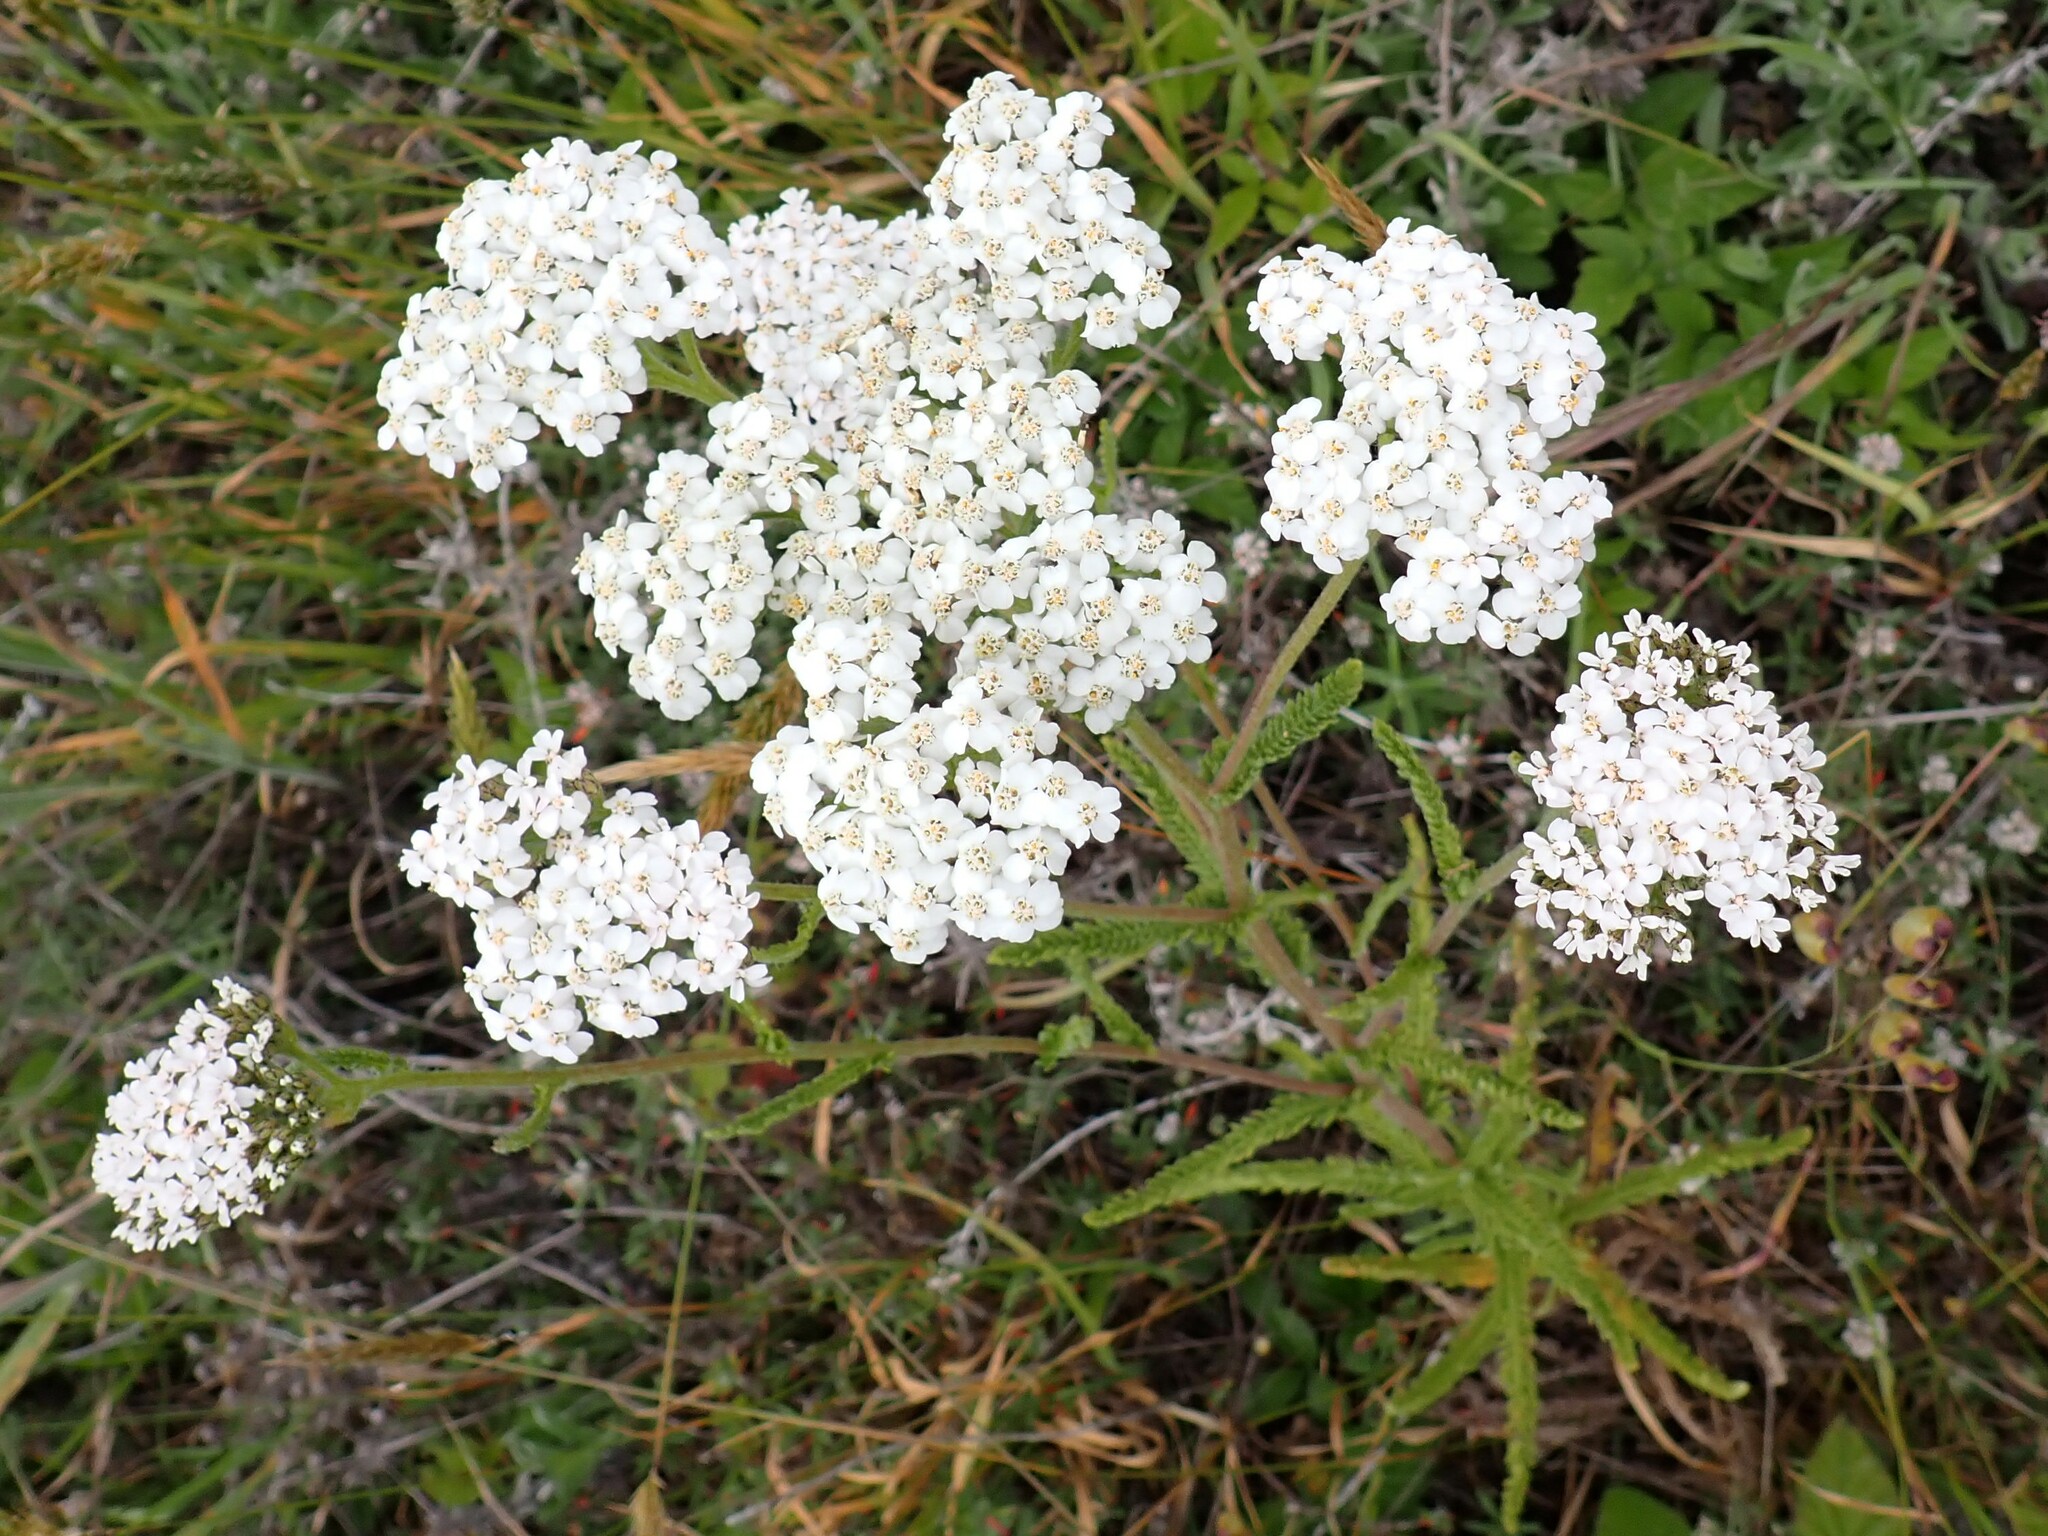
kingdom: Plantae
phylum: Tracheophyta
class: Magnoliopsida
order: Asterales
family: Asteraceae
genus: Achillea
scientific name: Achillea millefolium
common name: Yarrow
